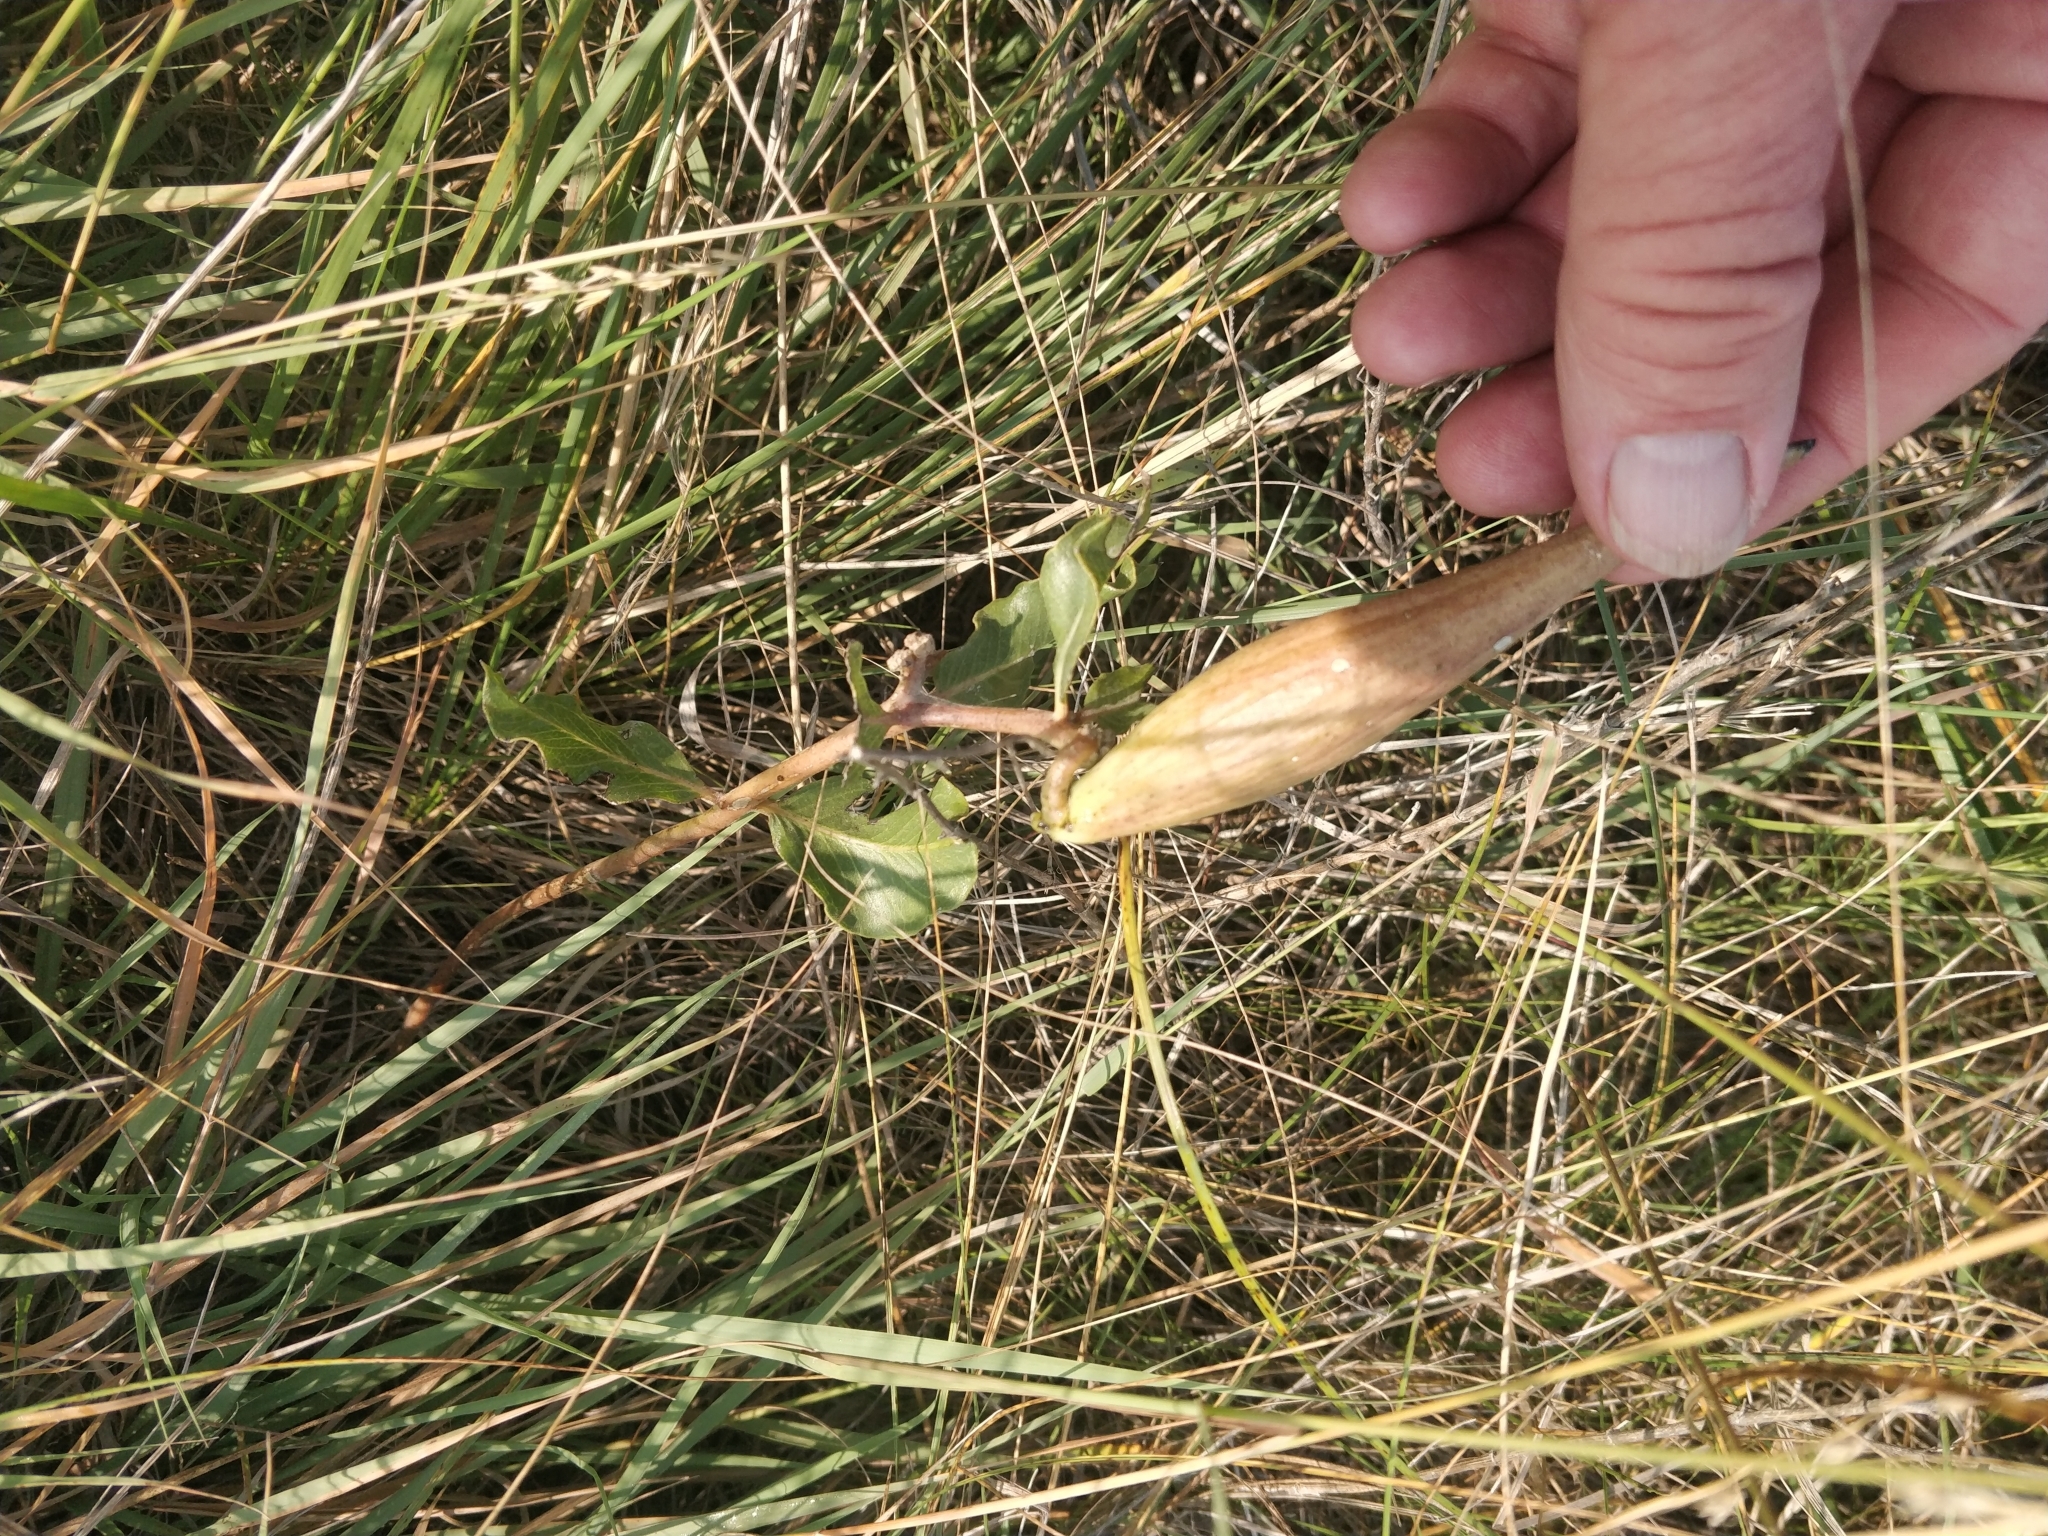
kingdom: Plantae
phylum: Tracheophyta
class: Magnoliopsida
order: Gentianales
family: Apocynaceae
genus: Asclepias
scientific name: Asclepias viridiflora
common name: Green comet milkweed
